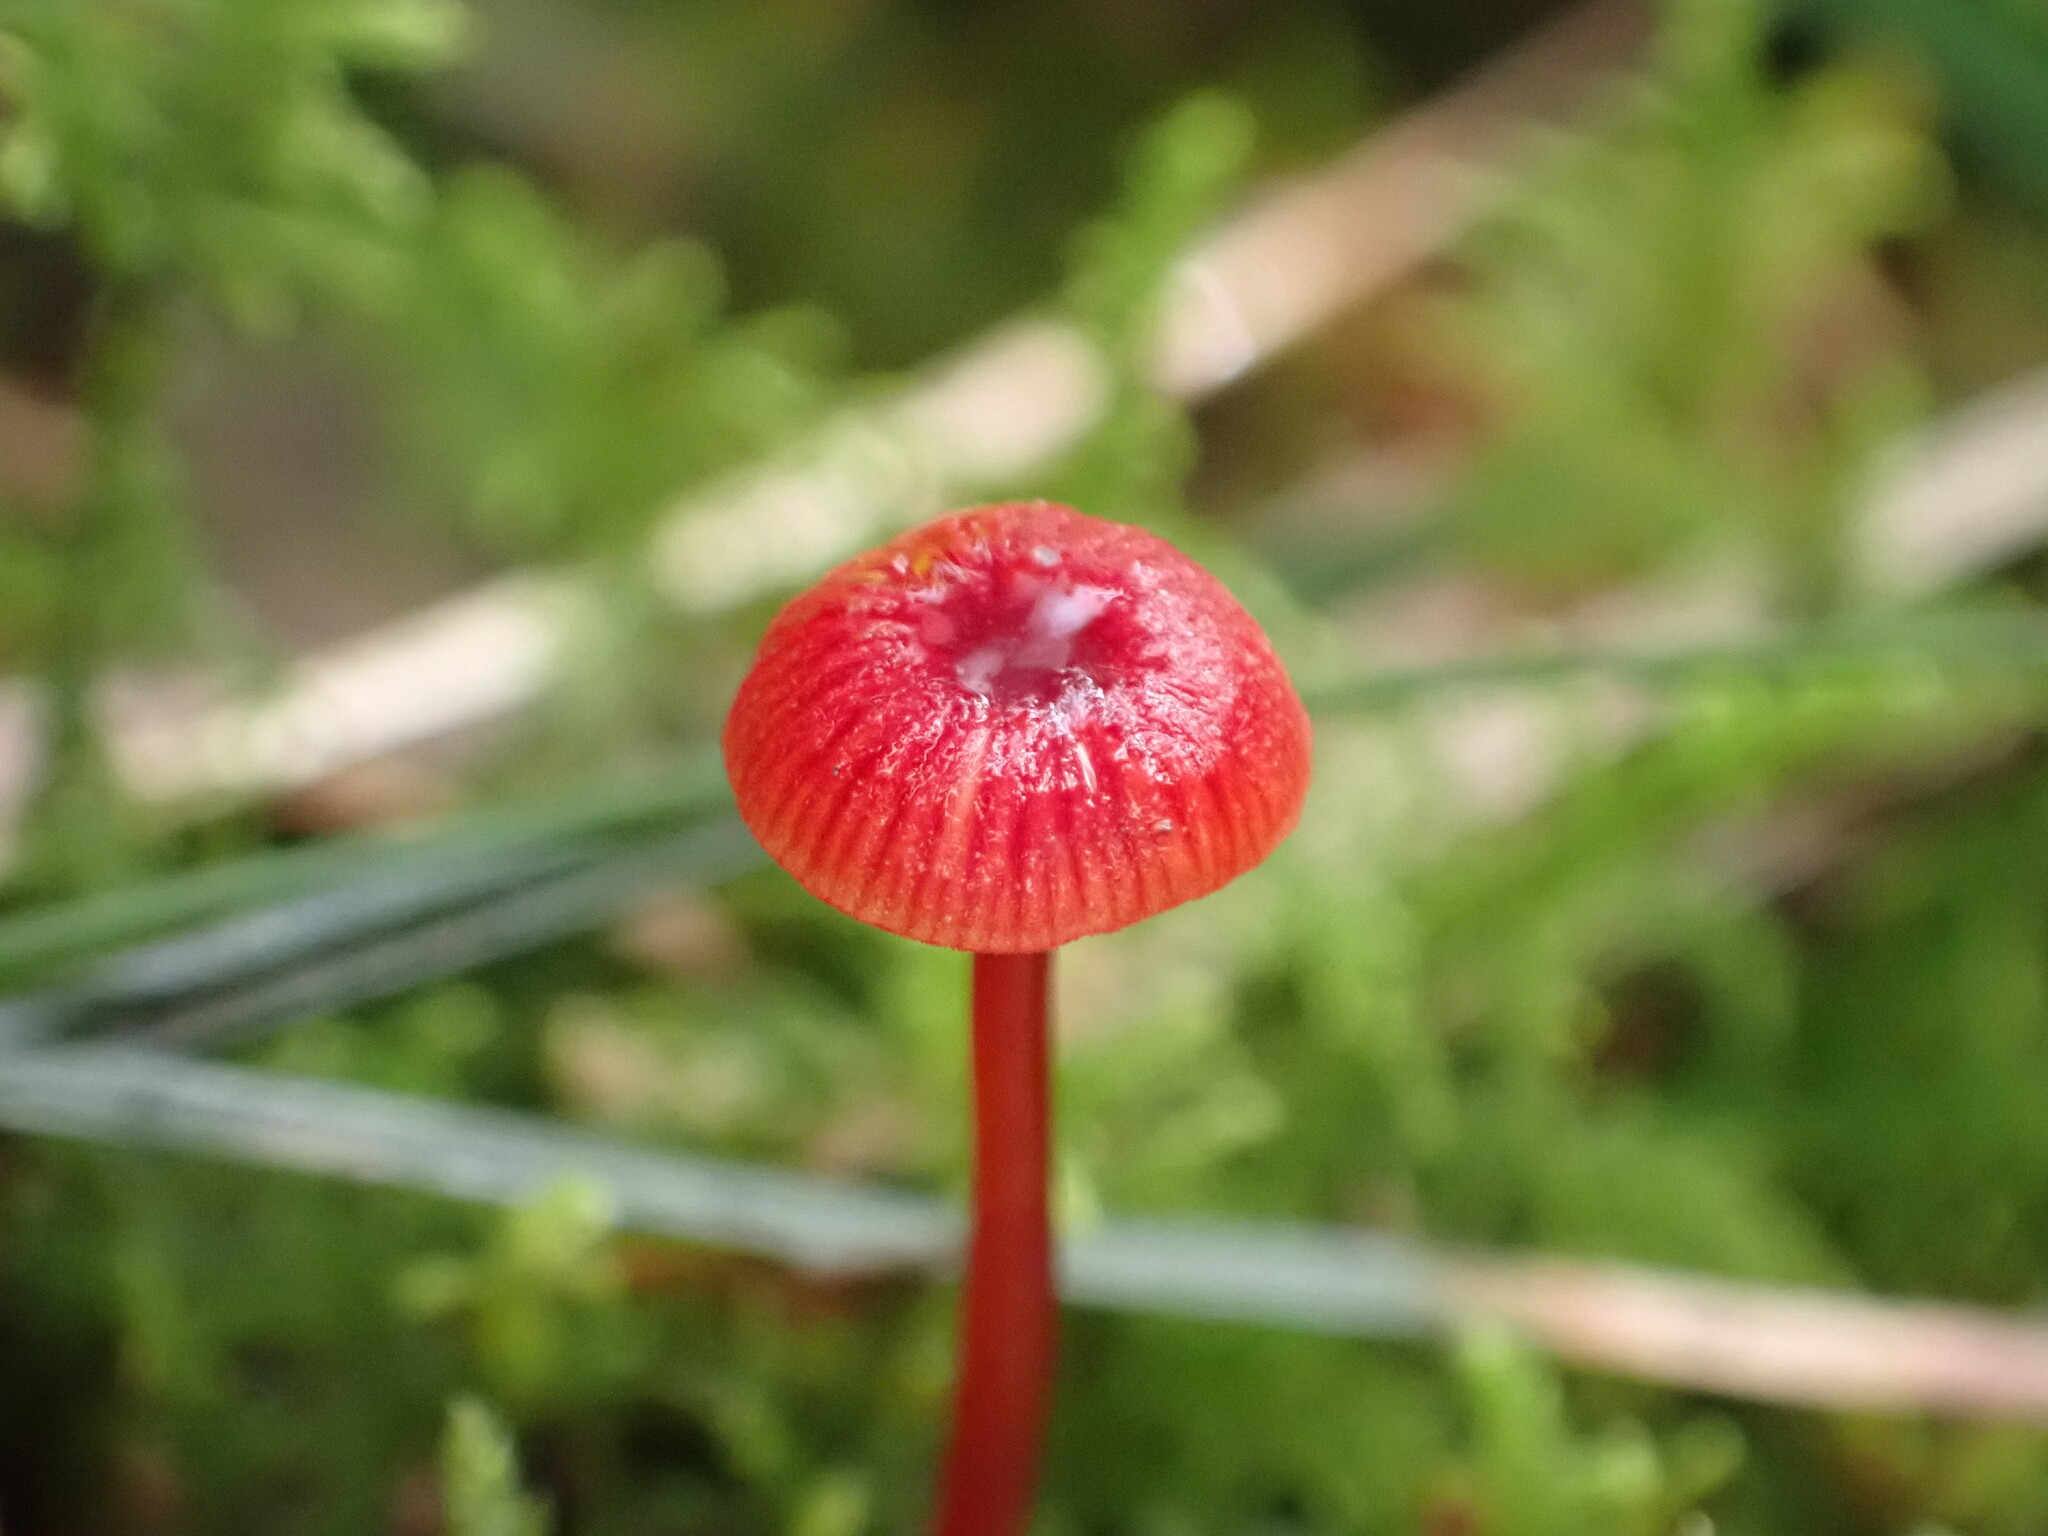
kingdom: Fungi
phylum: Basidiomycota
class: Agaricomycetes
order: Agaricales
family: Mycenaceae
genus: Cruentomycena
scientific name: Cruentomycena viscidocruenta
